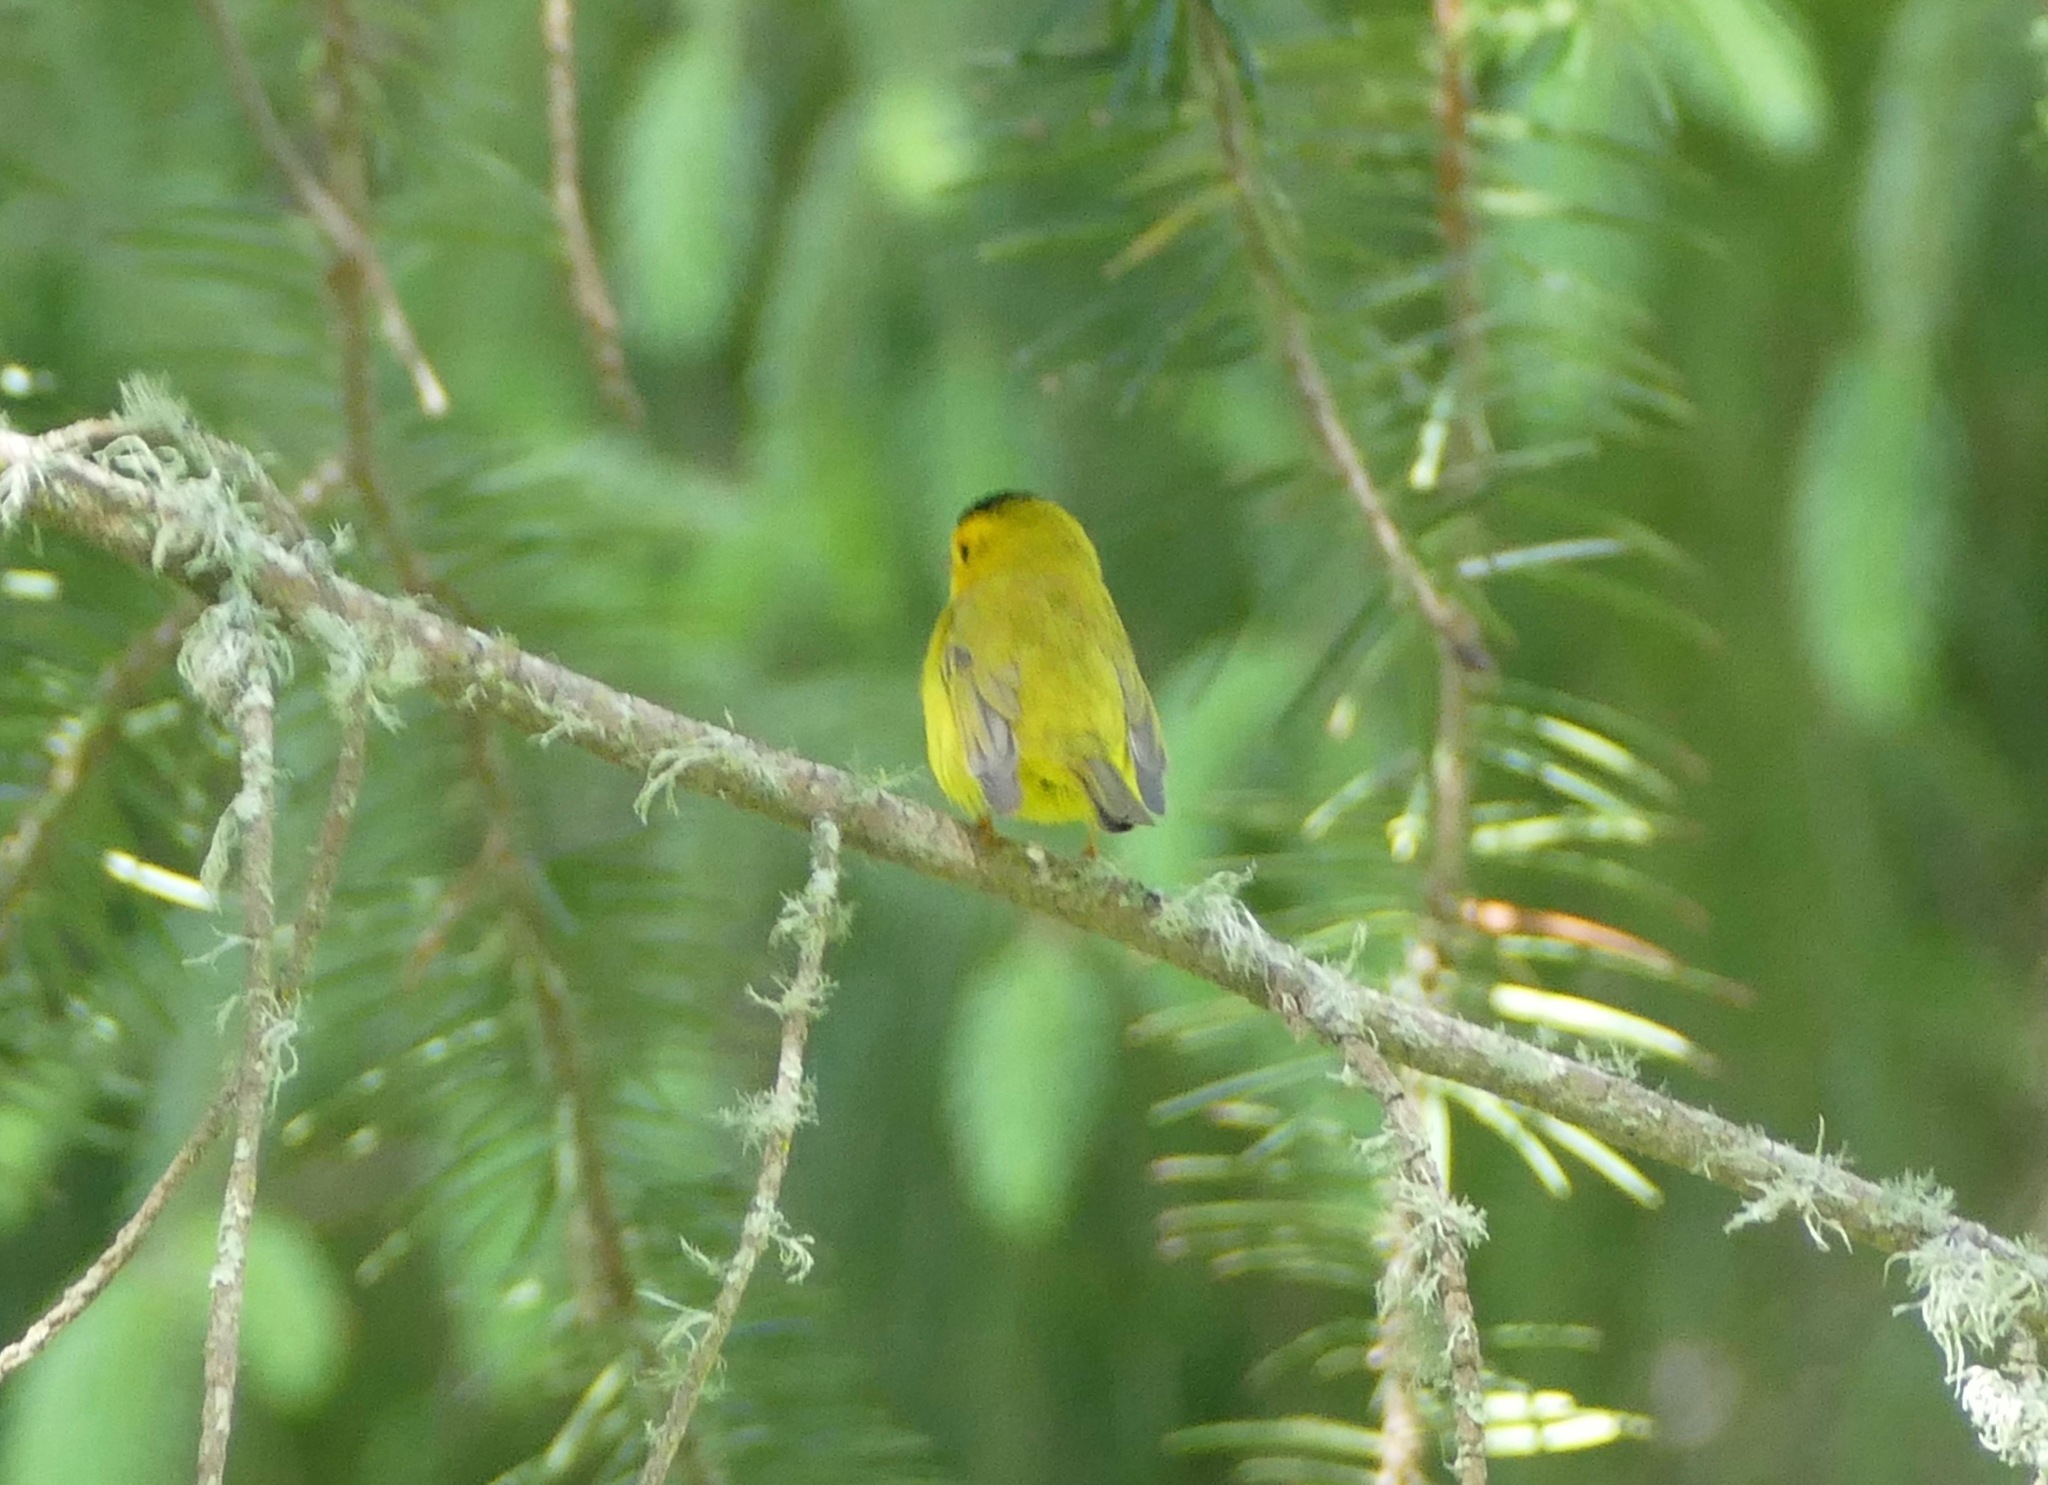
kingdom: Animalia
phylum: Chordata
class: Aves
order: Passeriformes
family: Parulidae
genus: Cardellina
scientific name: Cardellina pusilla
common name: Wilson's warbler
